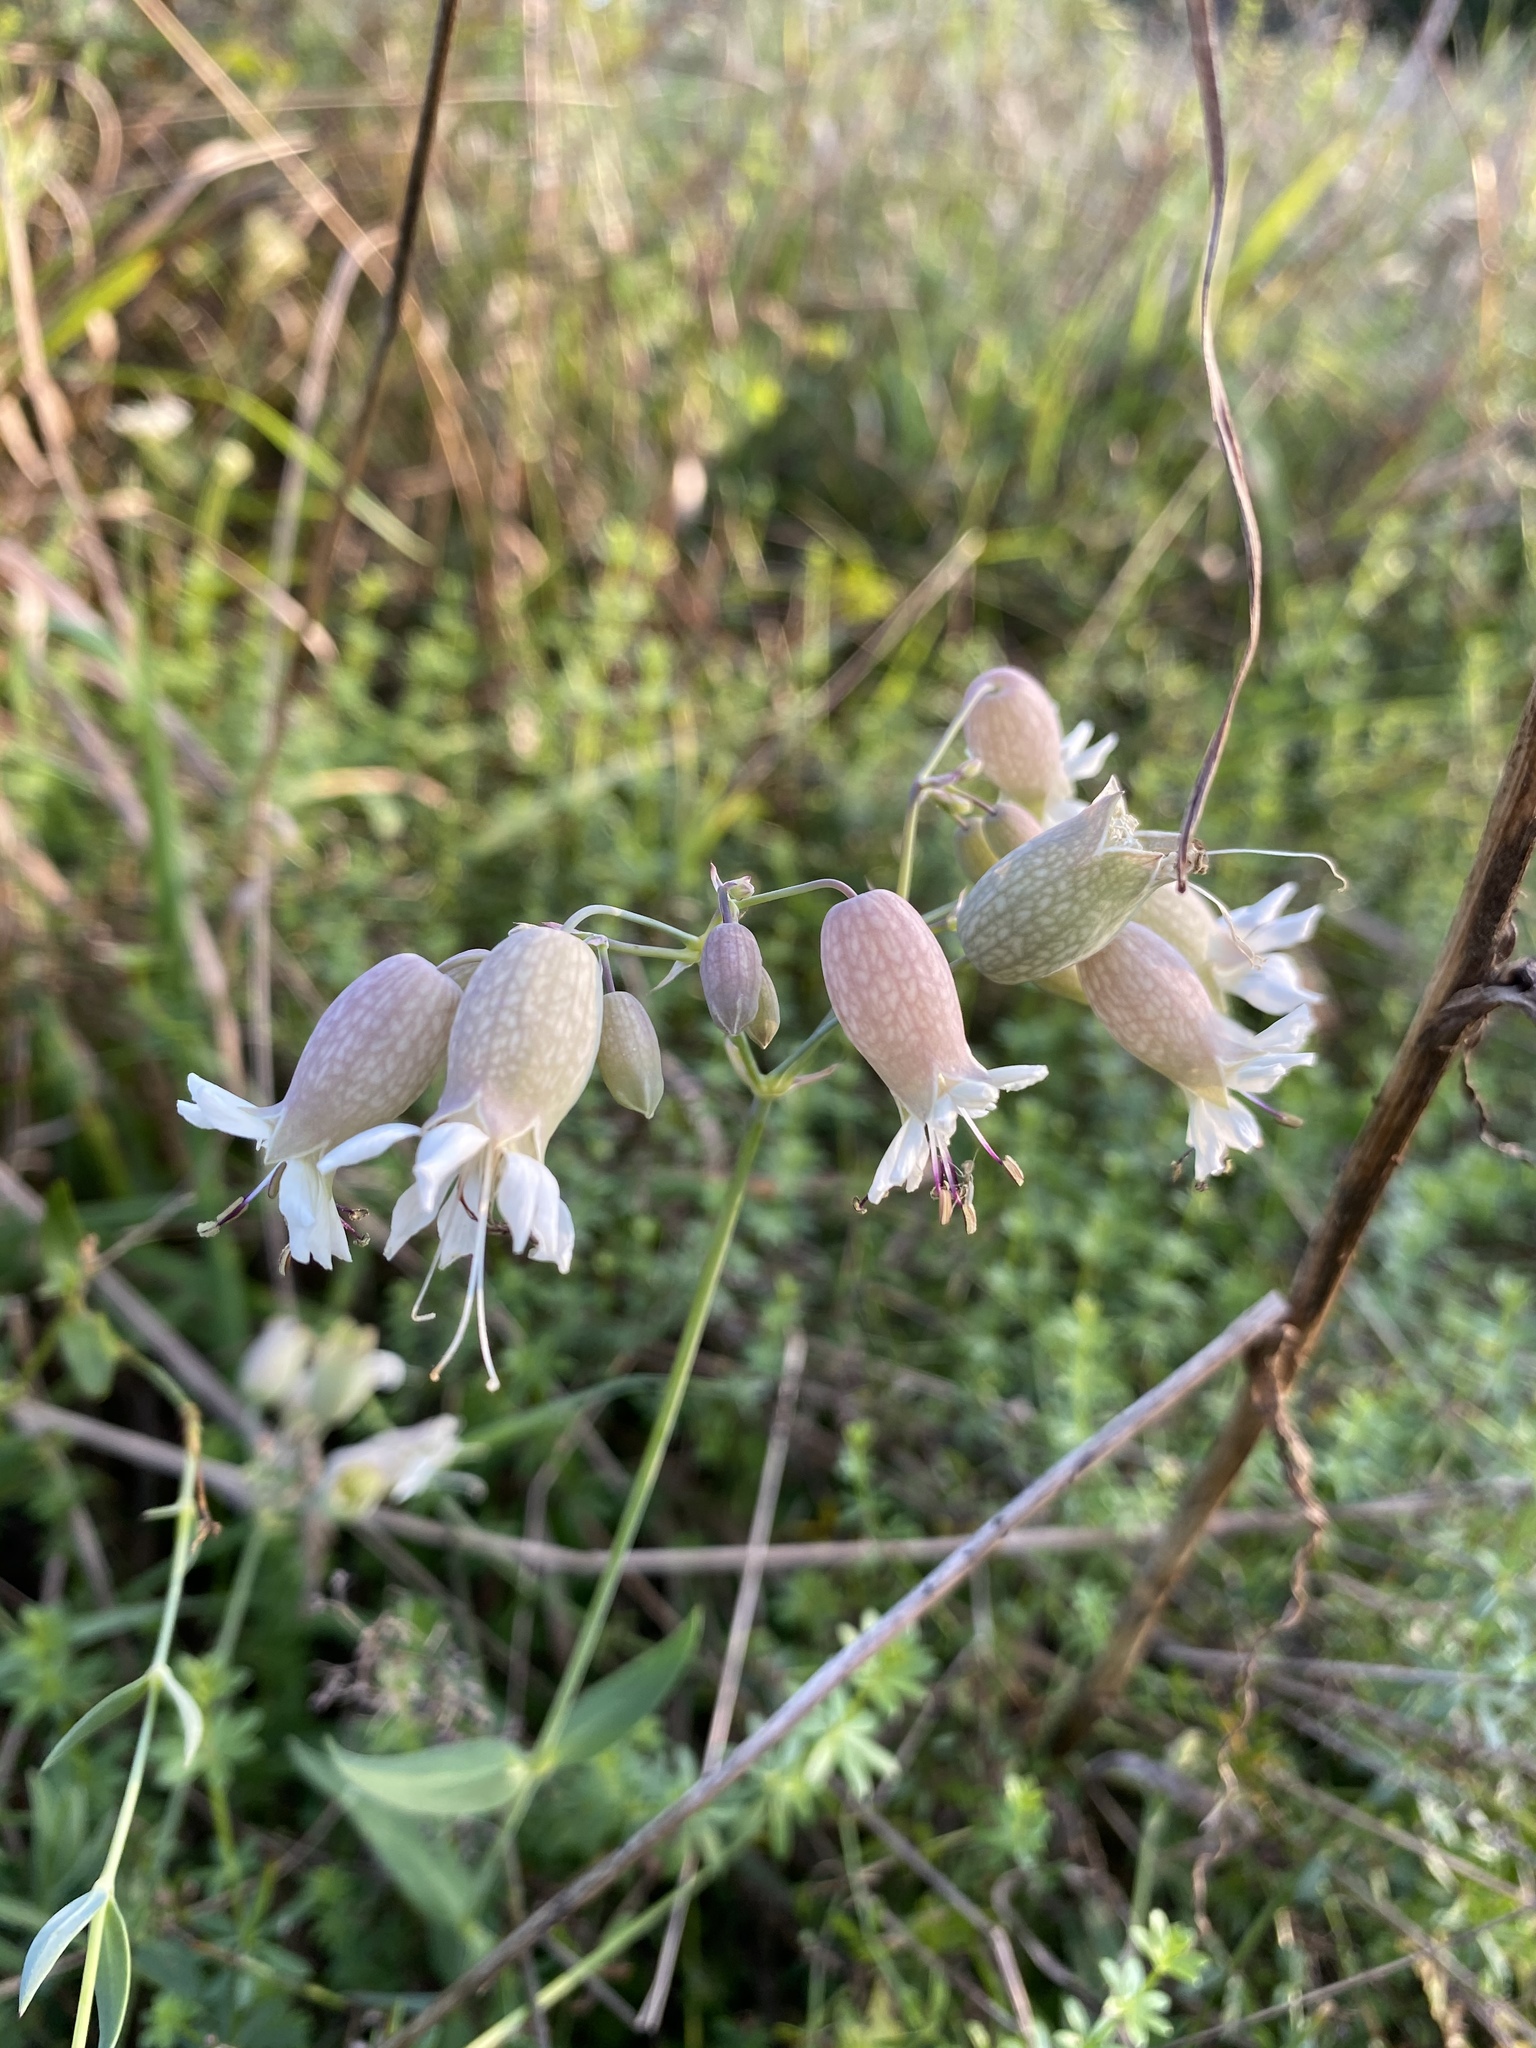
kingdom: Plantae
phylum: Tracheophyta
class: Magnoliopsida
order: Caryophyllales
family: Caryophyllaceae
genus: Silene
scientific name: Silene vulgaris
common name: Bladder campion
